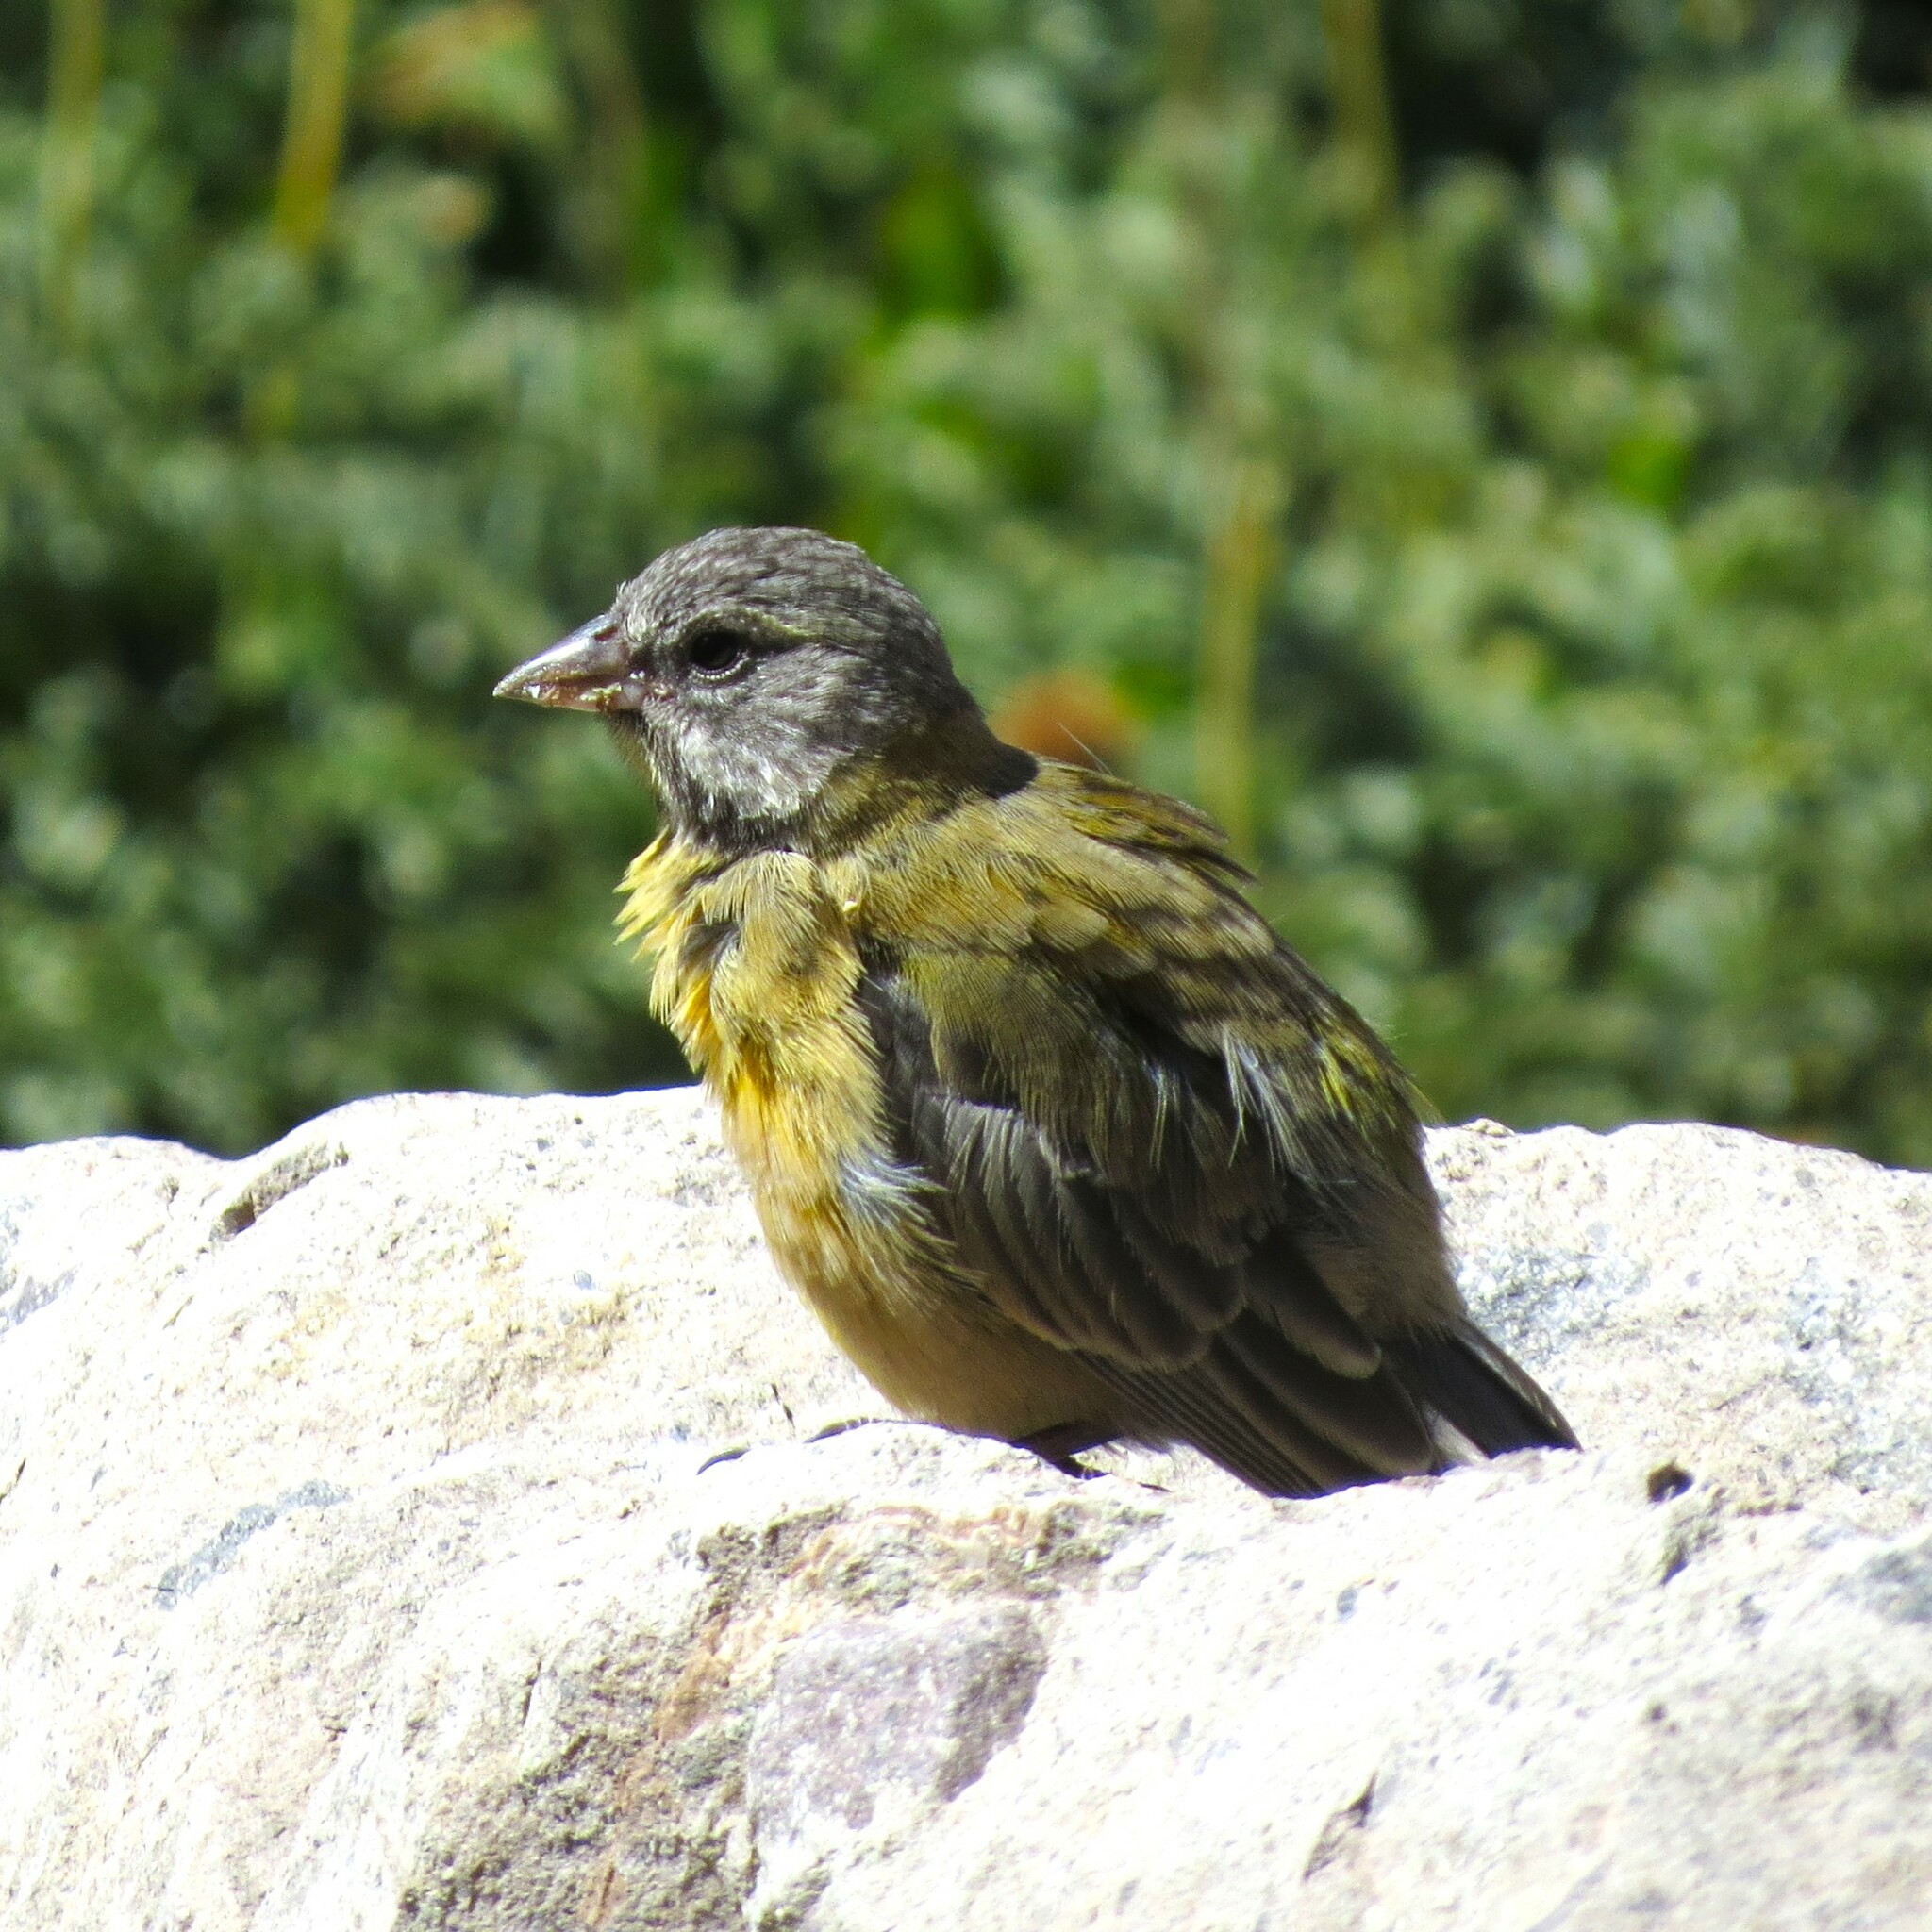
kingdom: Animalia
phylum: Chordata
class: Aves
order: Passeriformes
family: Thraupidae
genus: Phrygilus
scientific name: Phrygilus gayi
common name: Grey-hooded sierra finch
